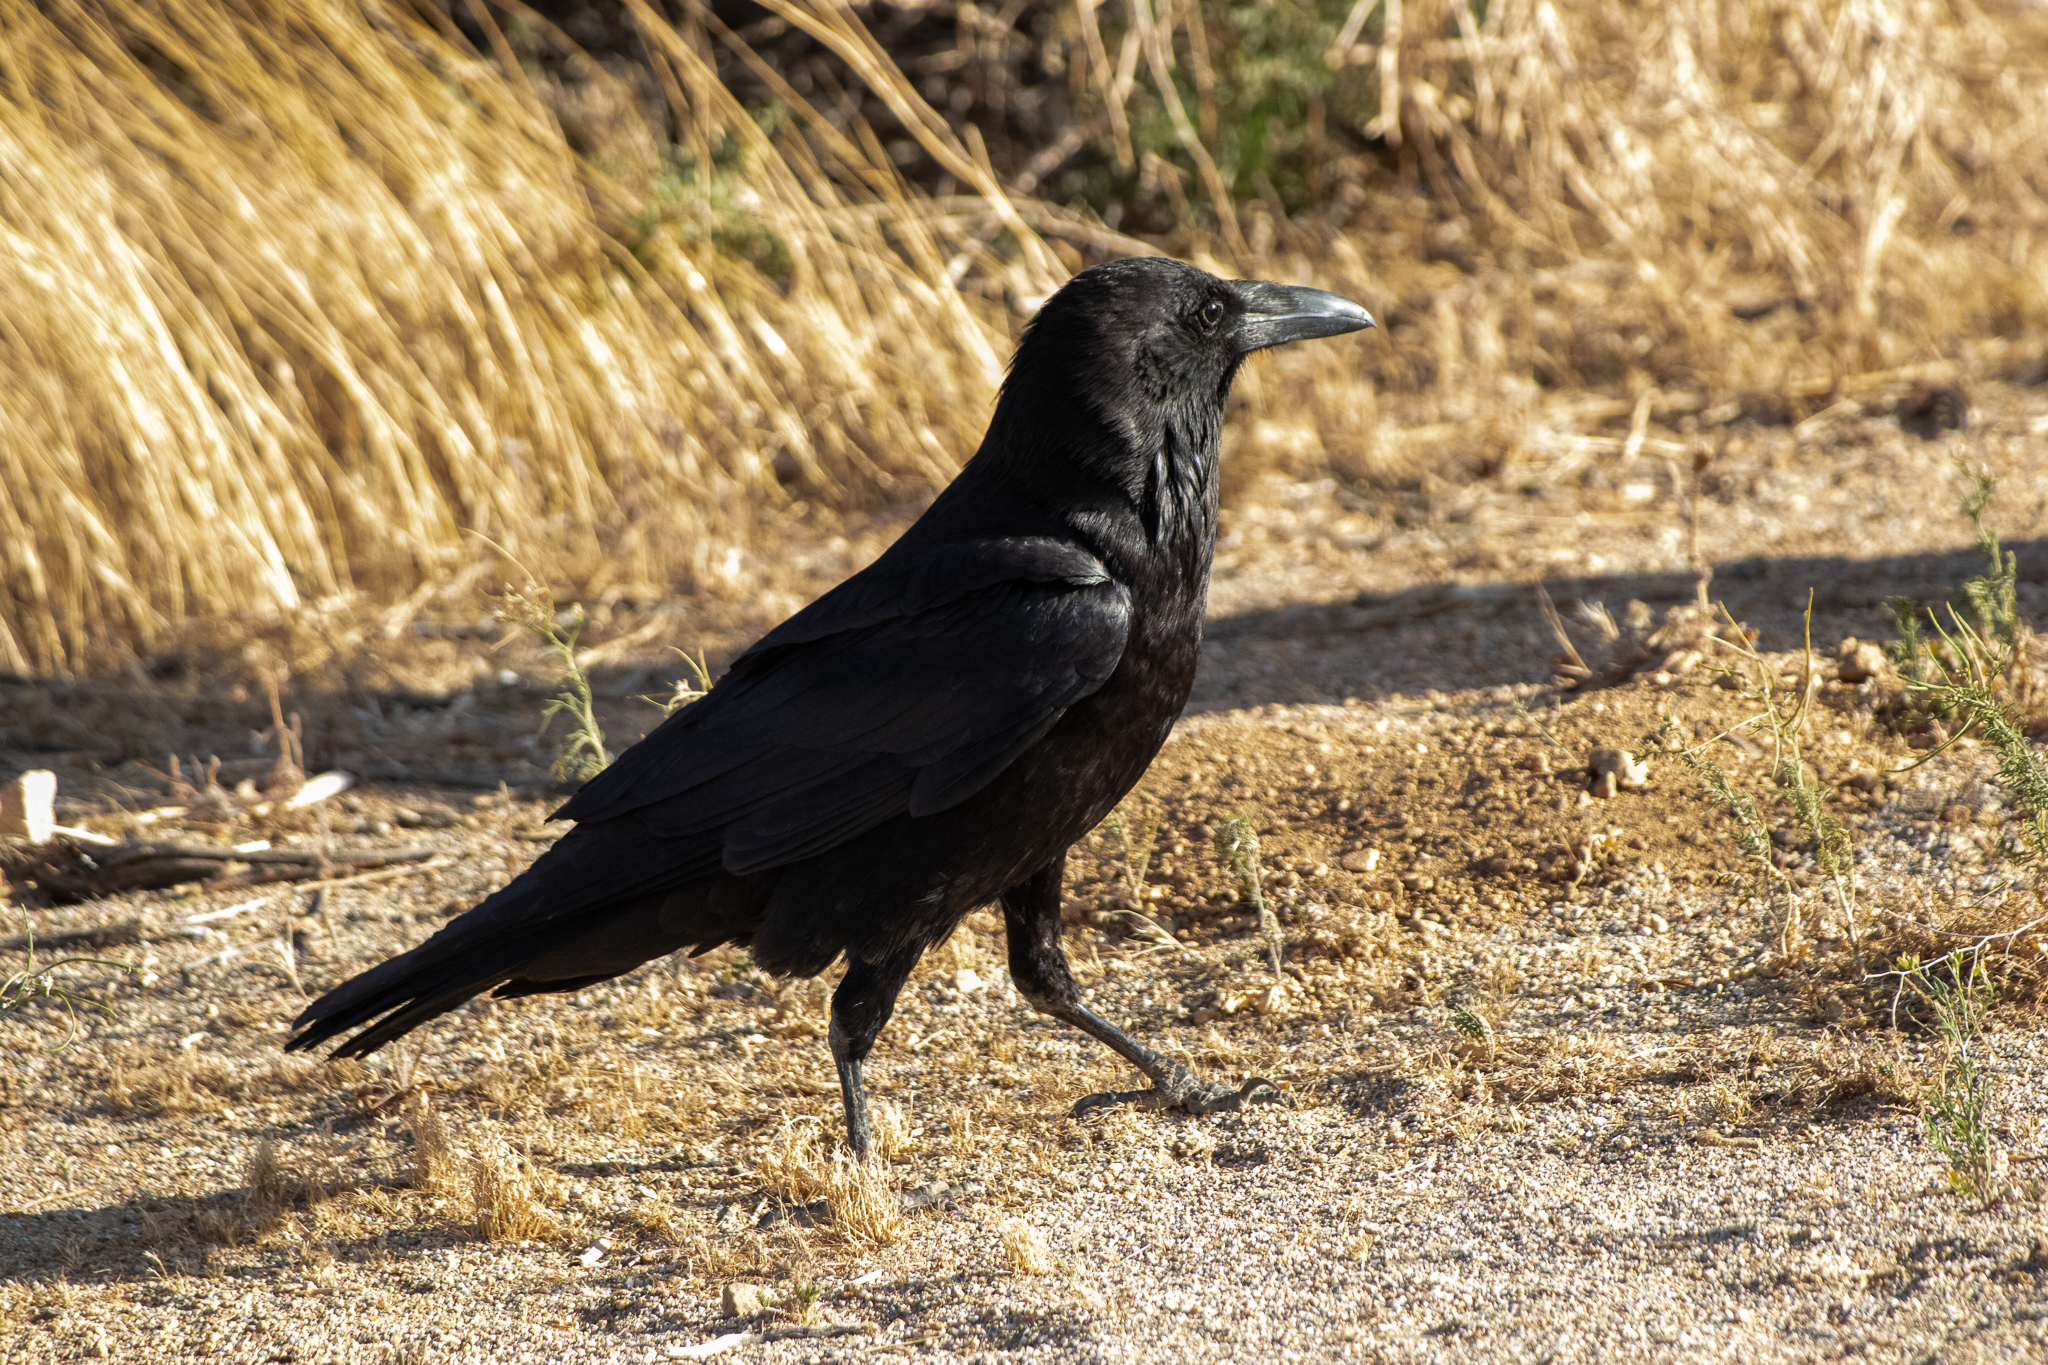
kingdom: Animalia
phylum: Chordata
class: Aves
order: Passeriformes
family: Corvidae
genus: Corvus
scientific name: Corvus corax
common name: Common raven
